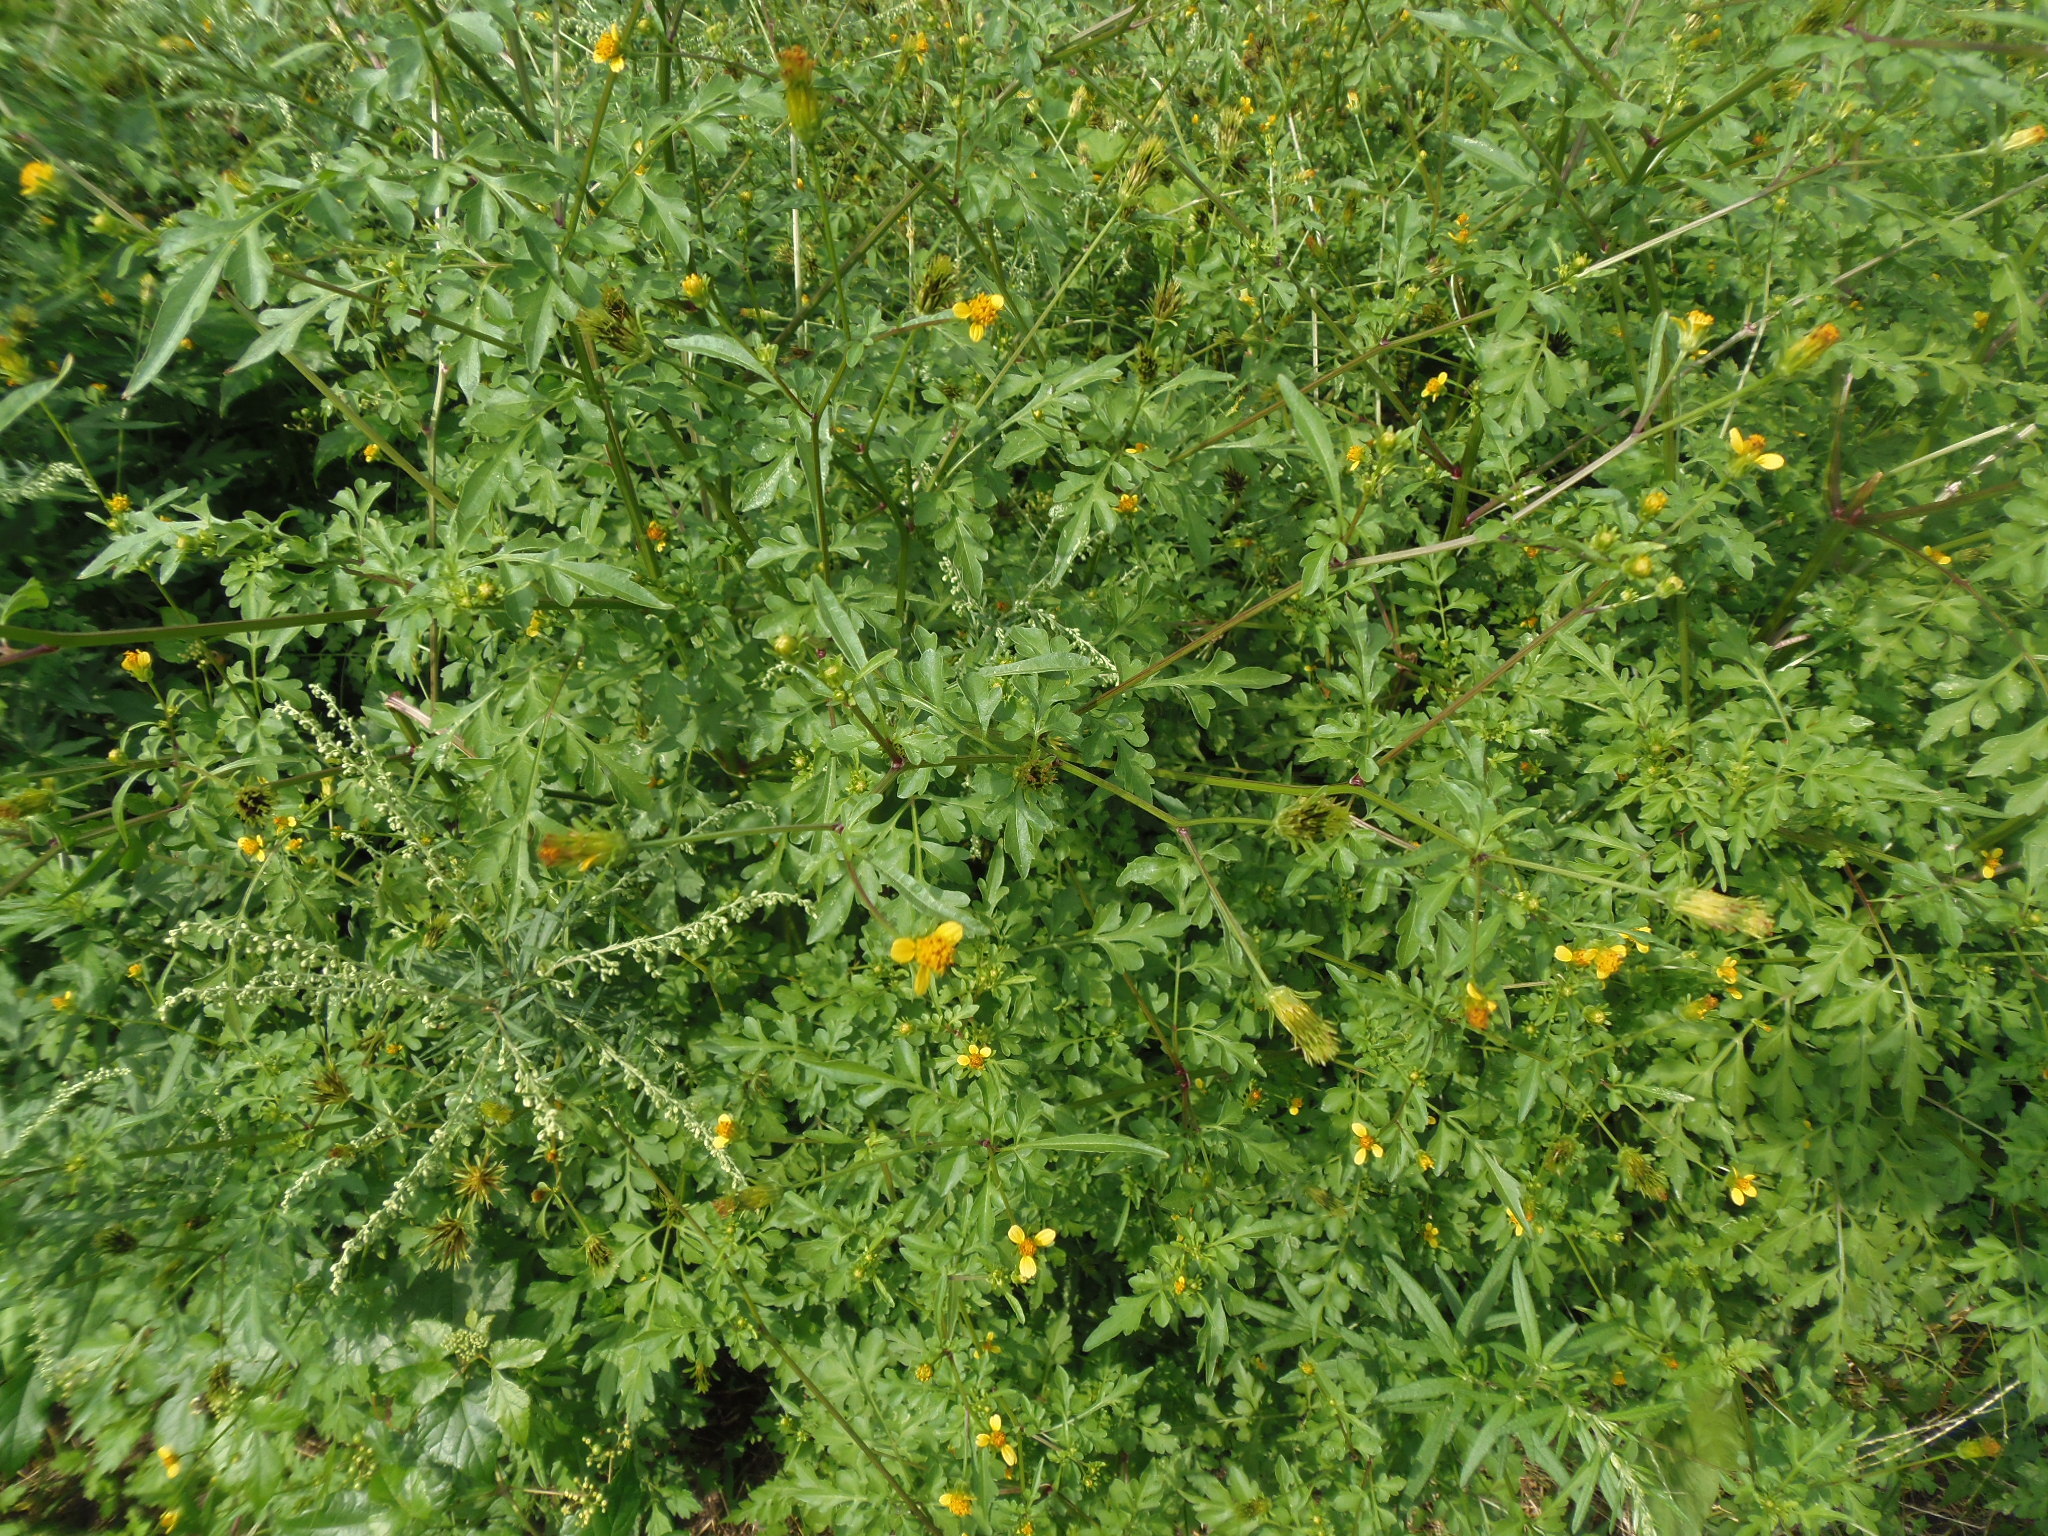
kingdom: Plantae
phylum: Tracheophyta
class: Magnoliopsida
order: Asterales
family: Asteraceae
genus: Bidens
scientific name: Bidens bipinnata
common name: Spanish-needles
